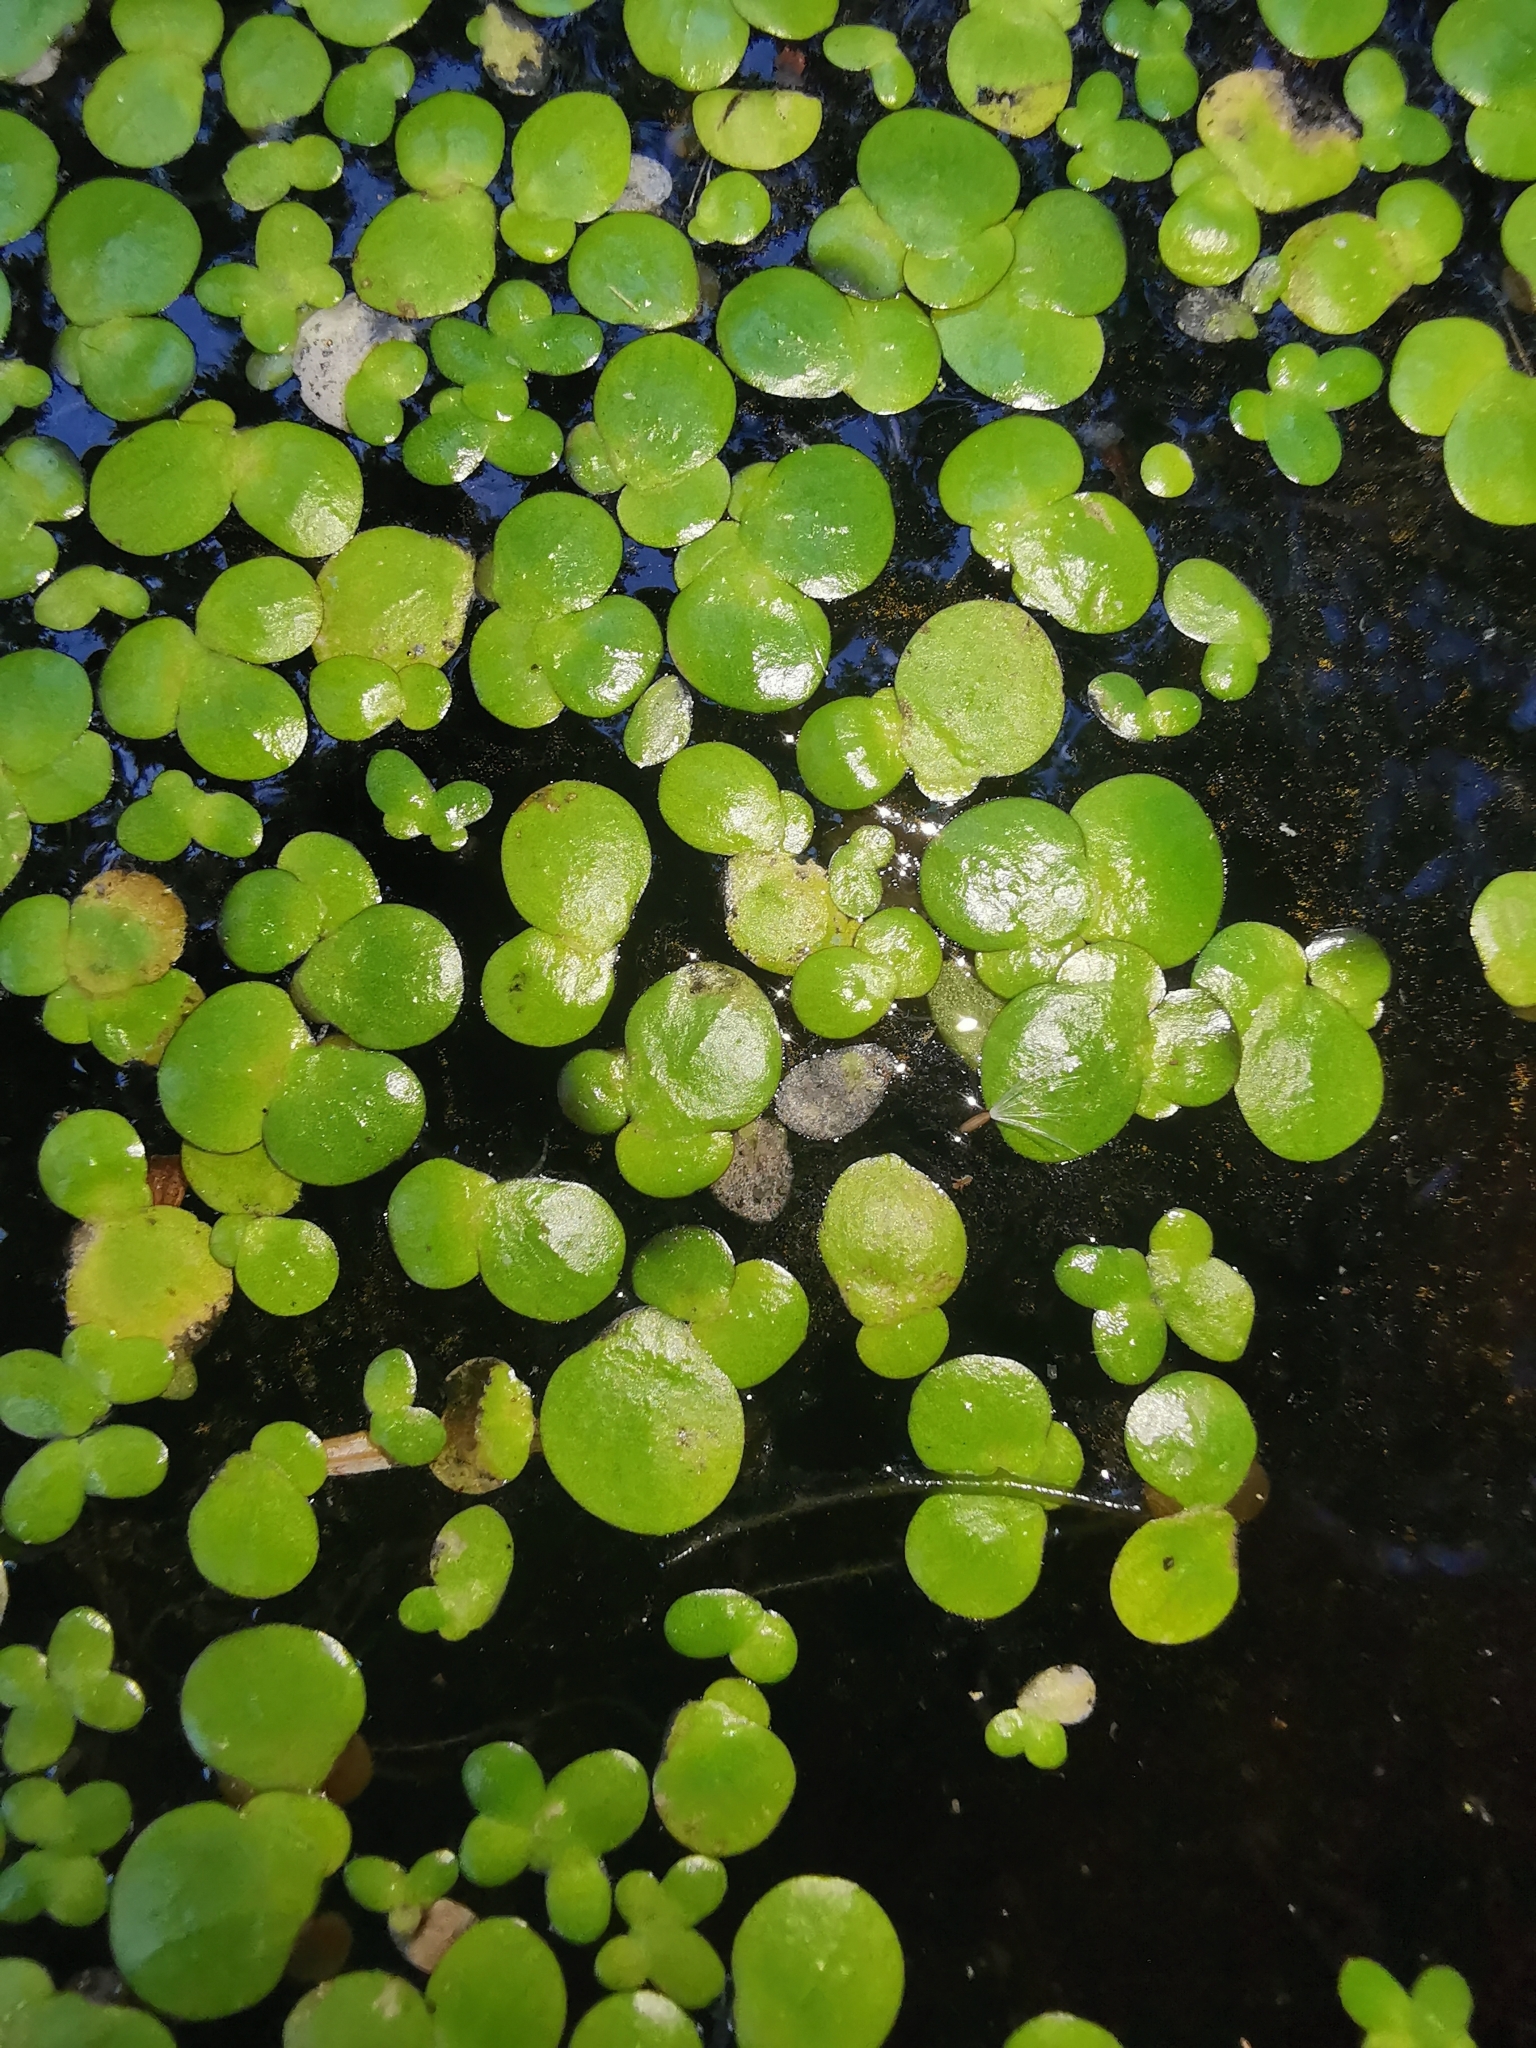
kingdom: Plantae
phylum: Tracheophyta
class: Liliopsida
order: Alismatales
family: Araceae
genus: Spirodela
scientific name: Spirodela polyrhiza
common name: Great duckweed
